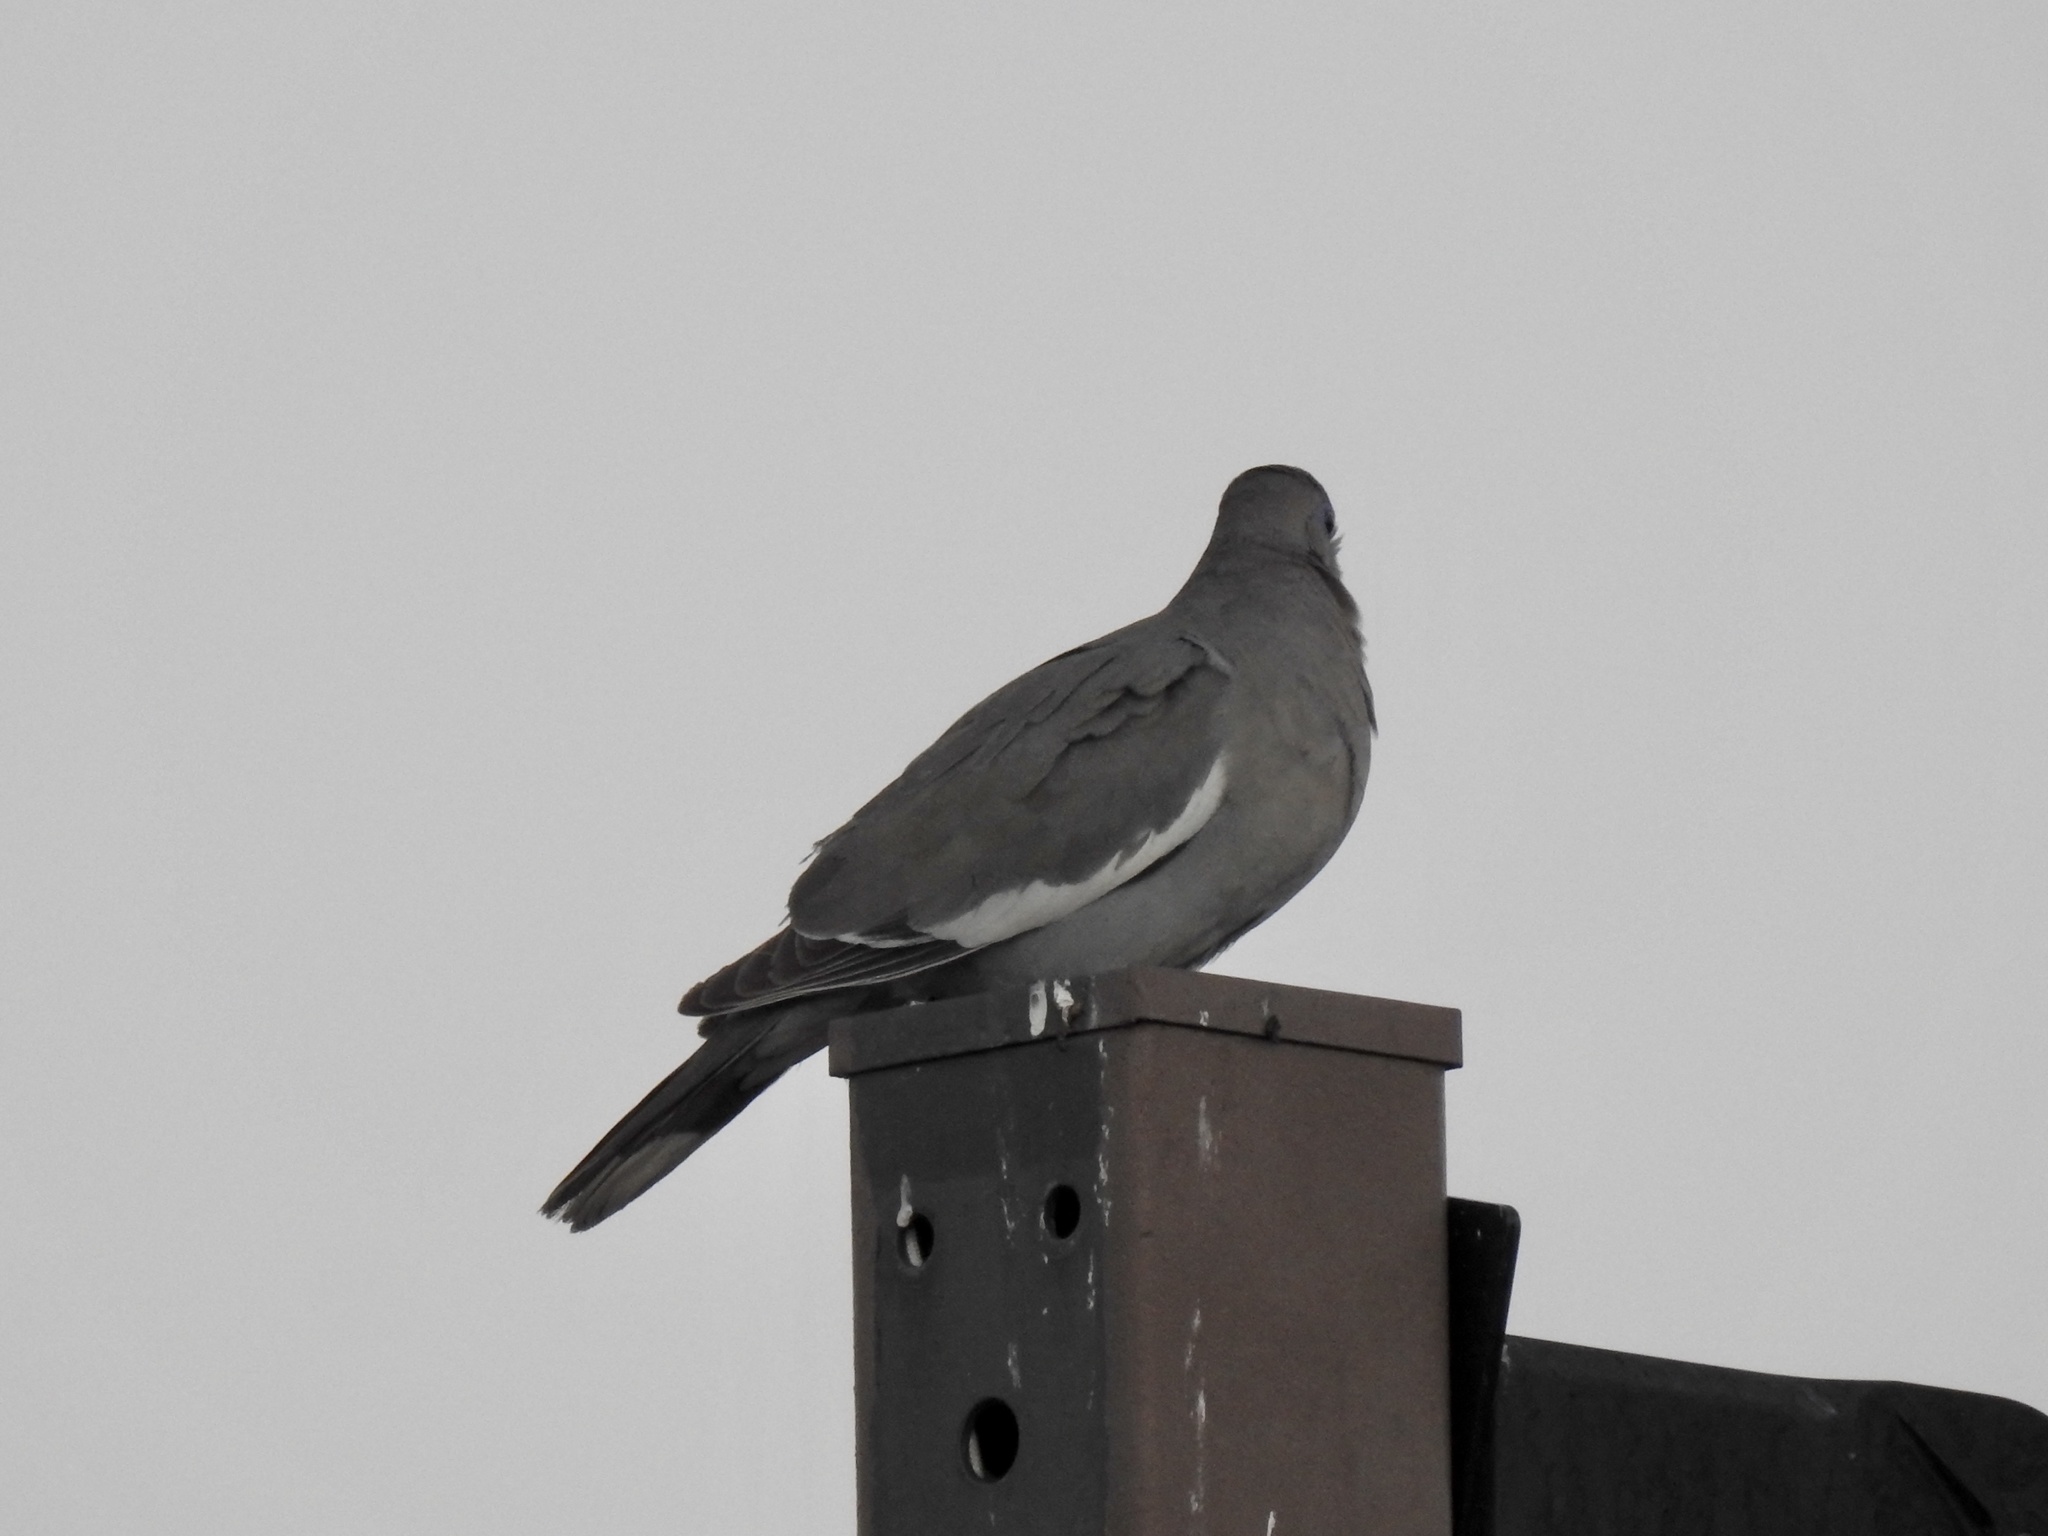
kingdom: Animalia
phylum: Chordata
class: Aves
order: Columbiformes
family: Columbidae
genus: Zenaida
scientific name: Zenaida asiatica
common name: White-winged dove
